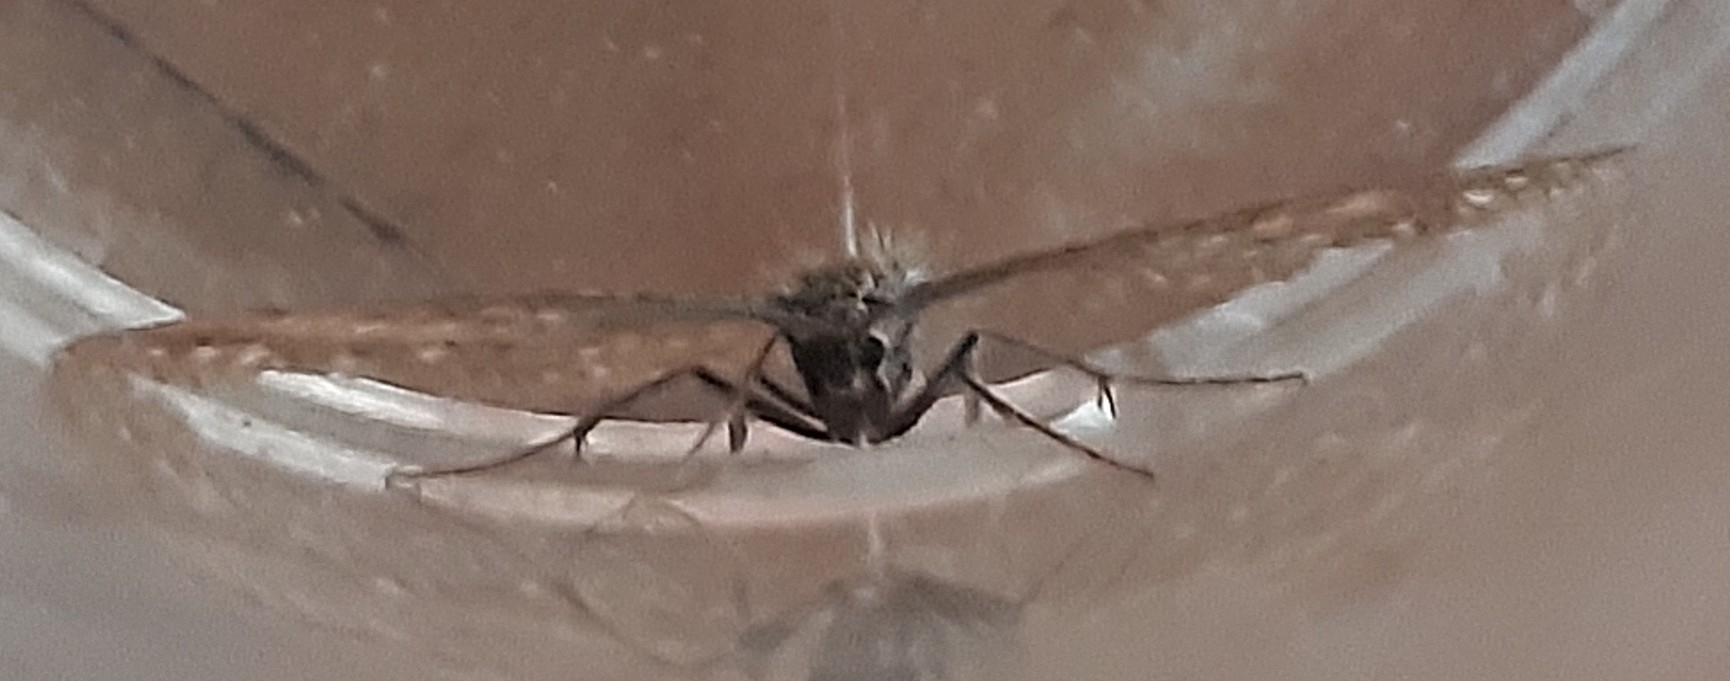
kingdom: Animalia
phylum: Arthropoda
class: Insecta
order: Lepidoptera
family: Geometridae
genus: Scopula
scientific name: Scopula immorata
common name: Lewes wave
